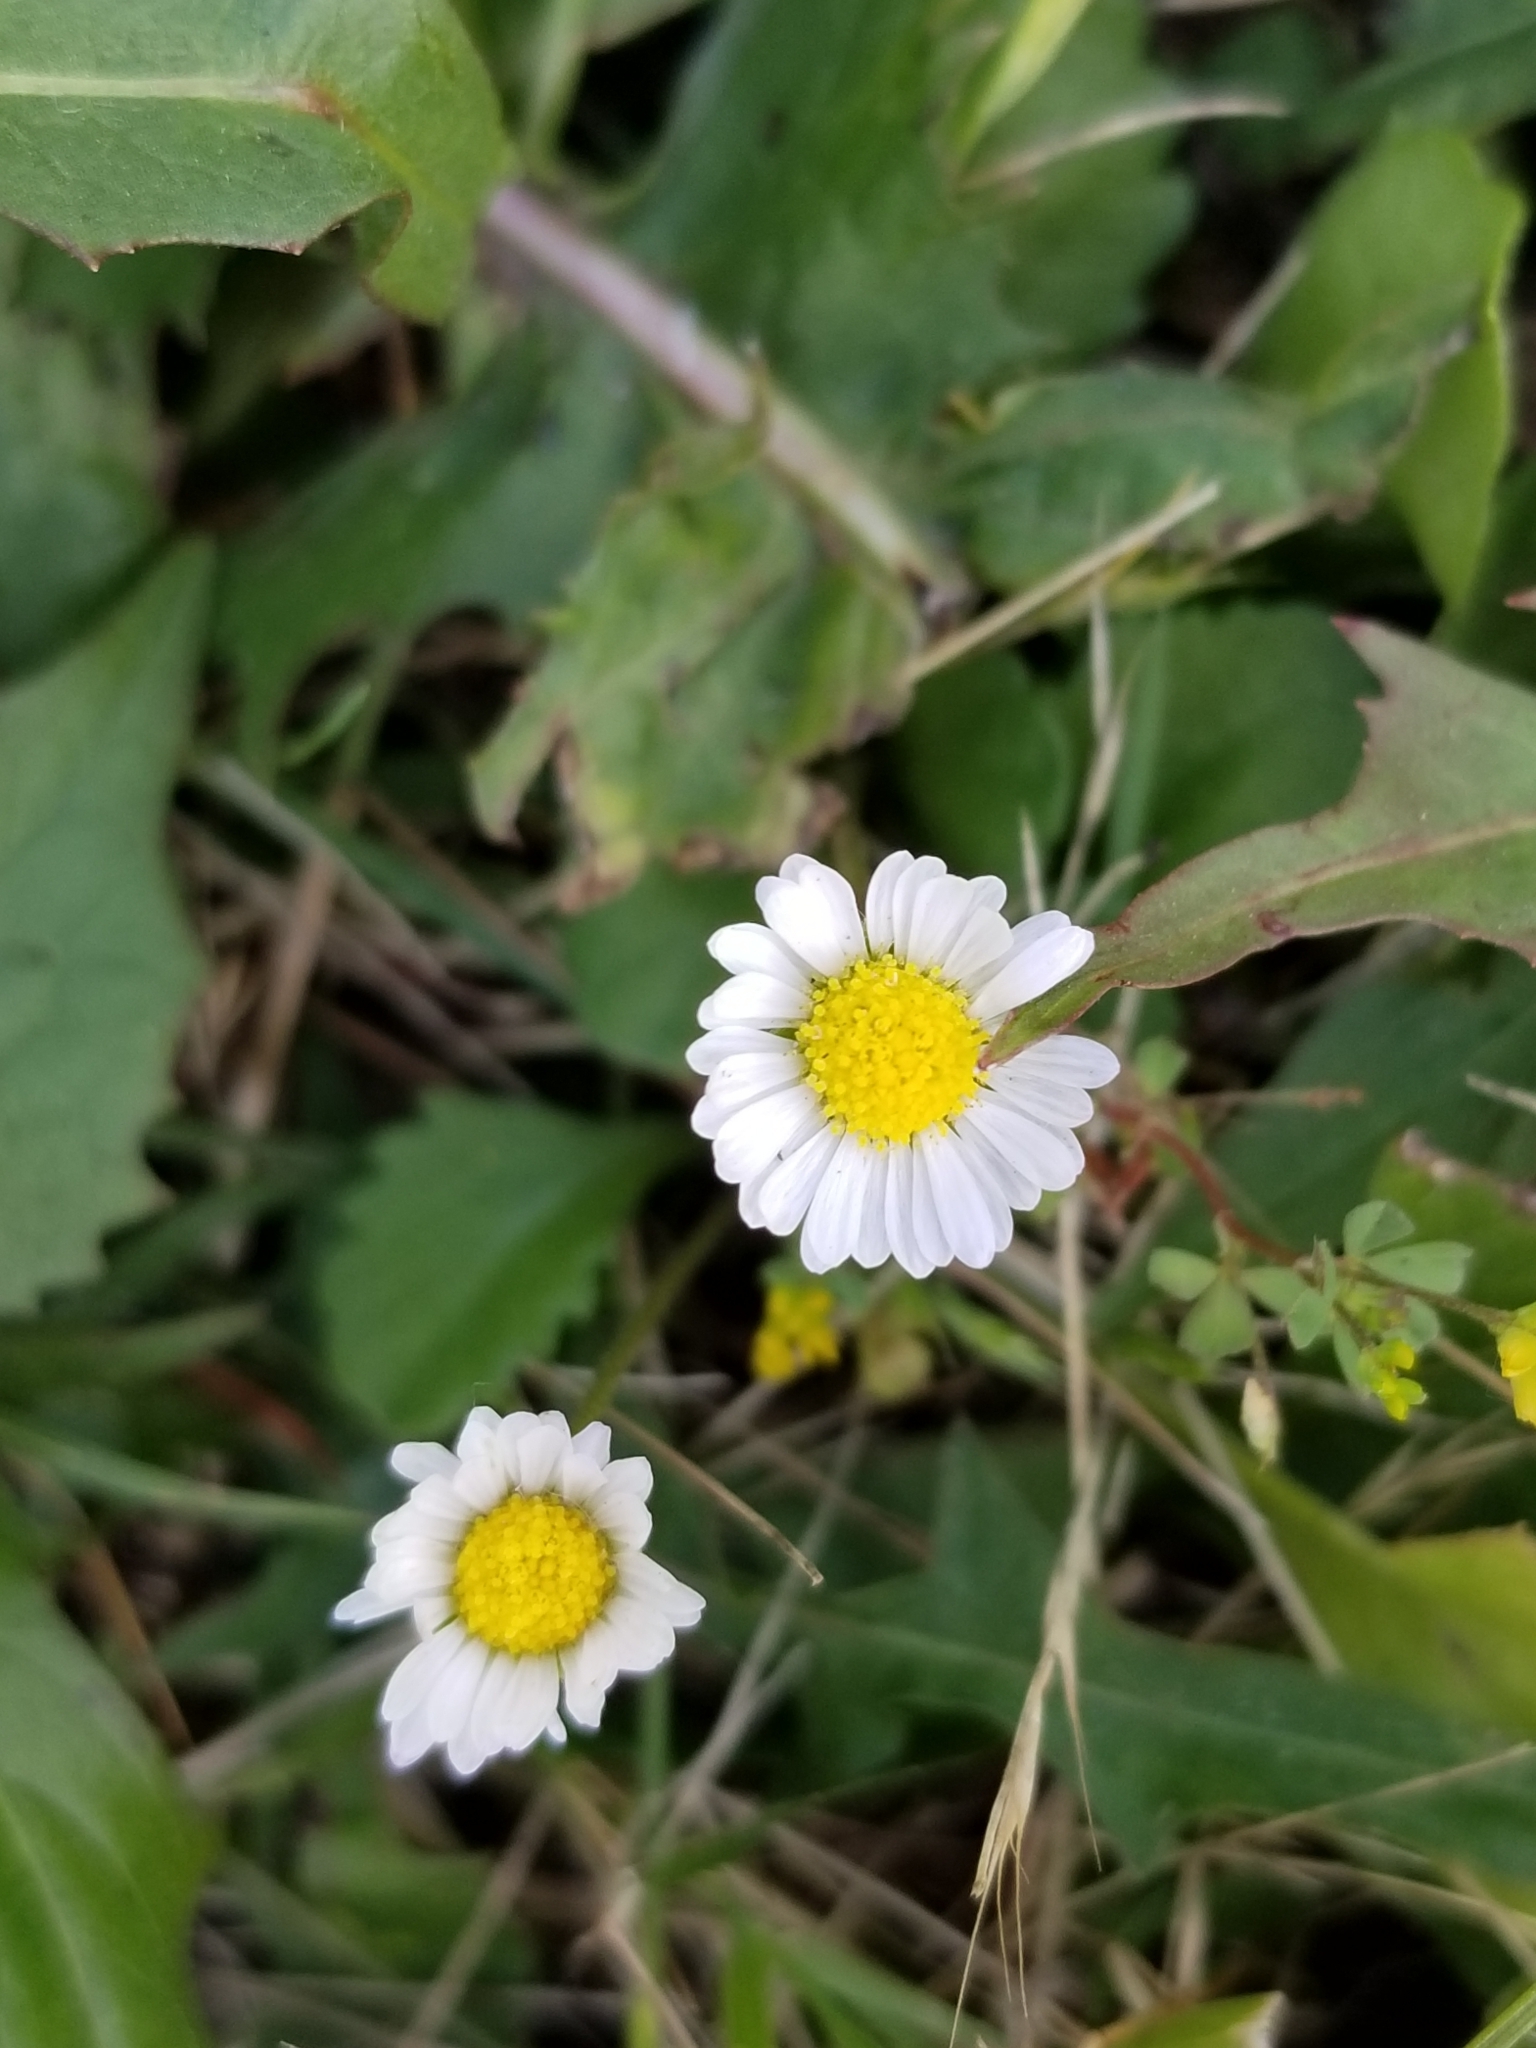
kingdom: Plantae
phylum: Tracheophyta
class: Magnoliopsida
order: Asterales
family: Asteraceae
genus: Bellis
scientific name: Bellis perennis
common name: Lawndaisy
